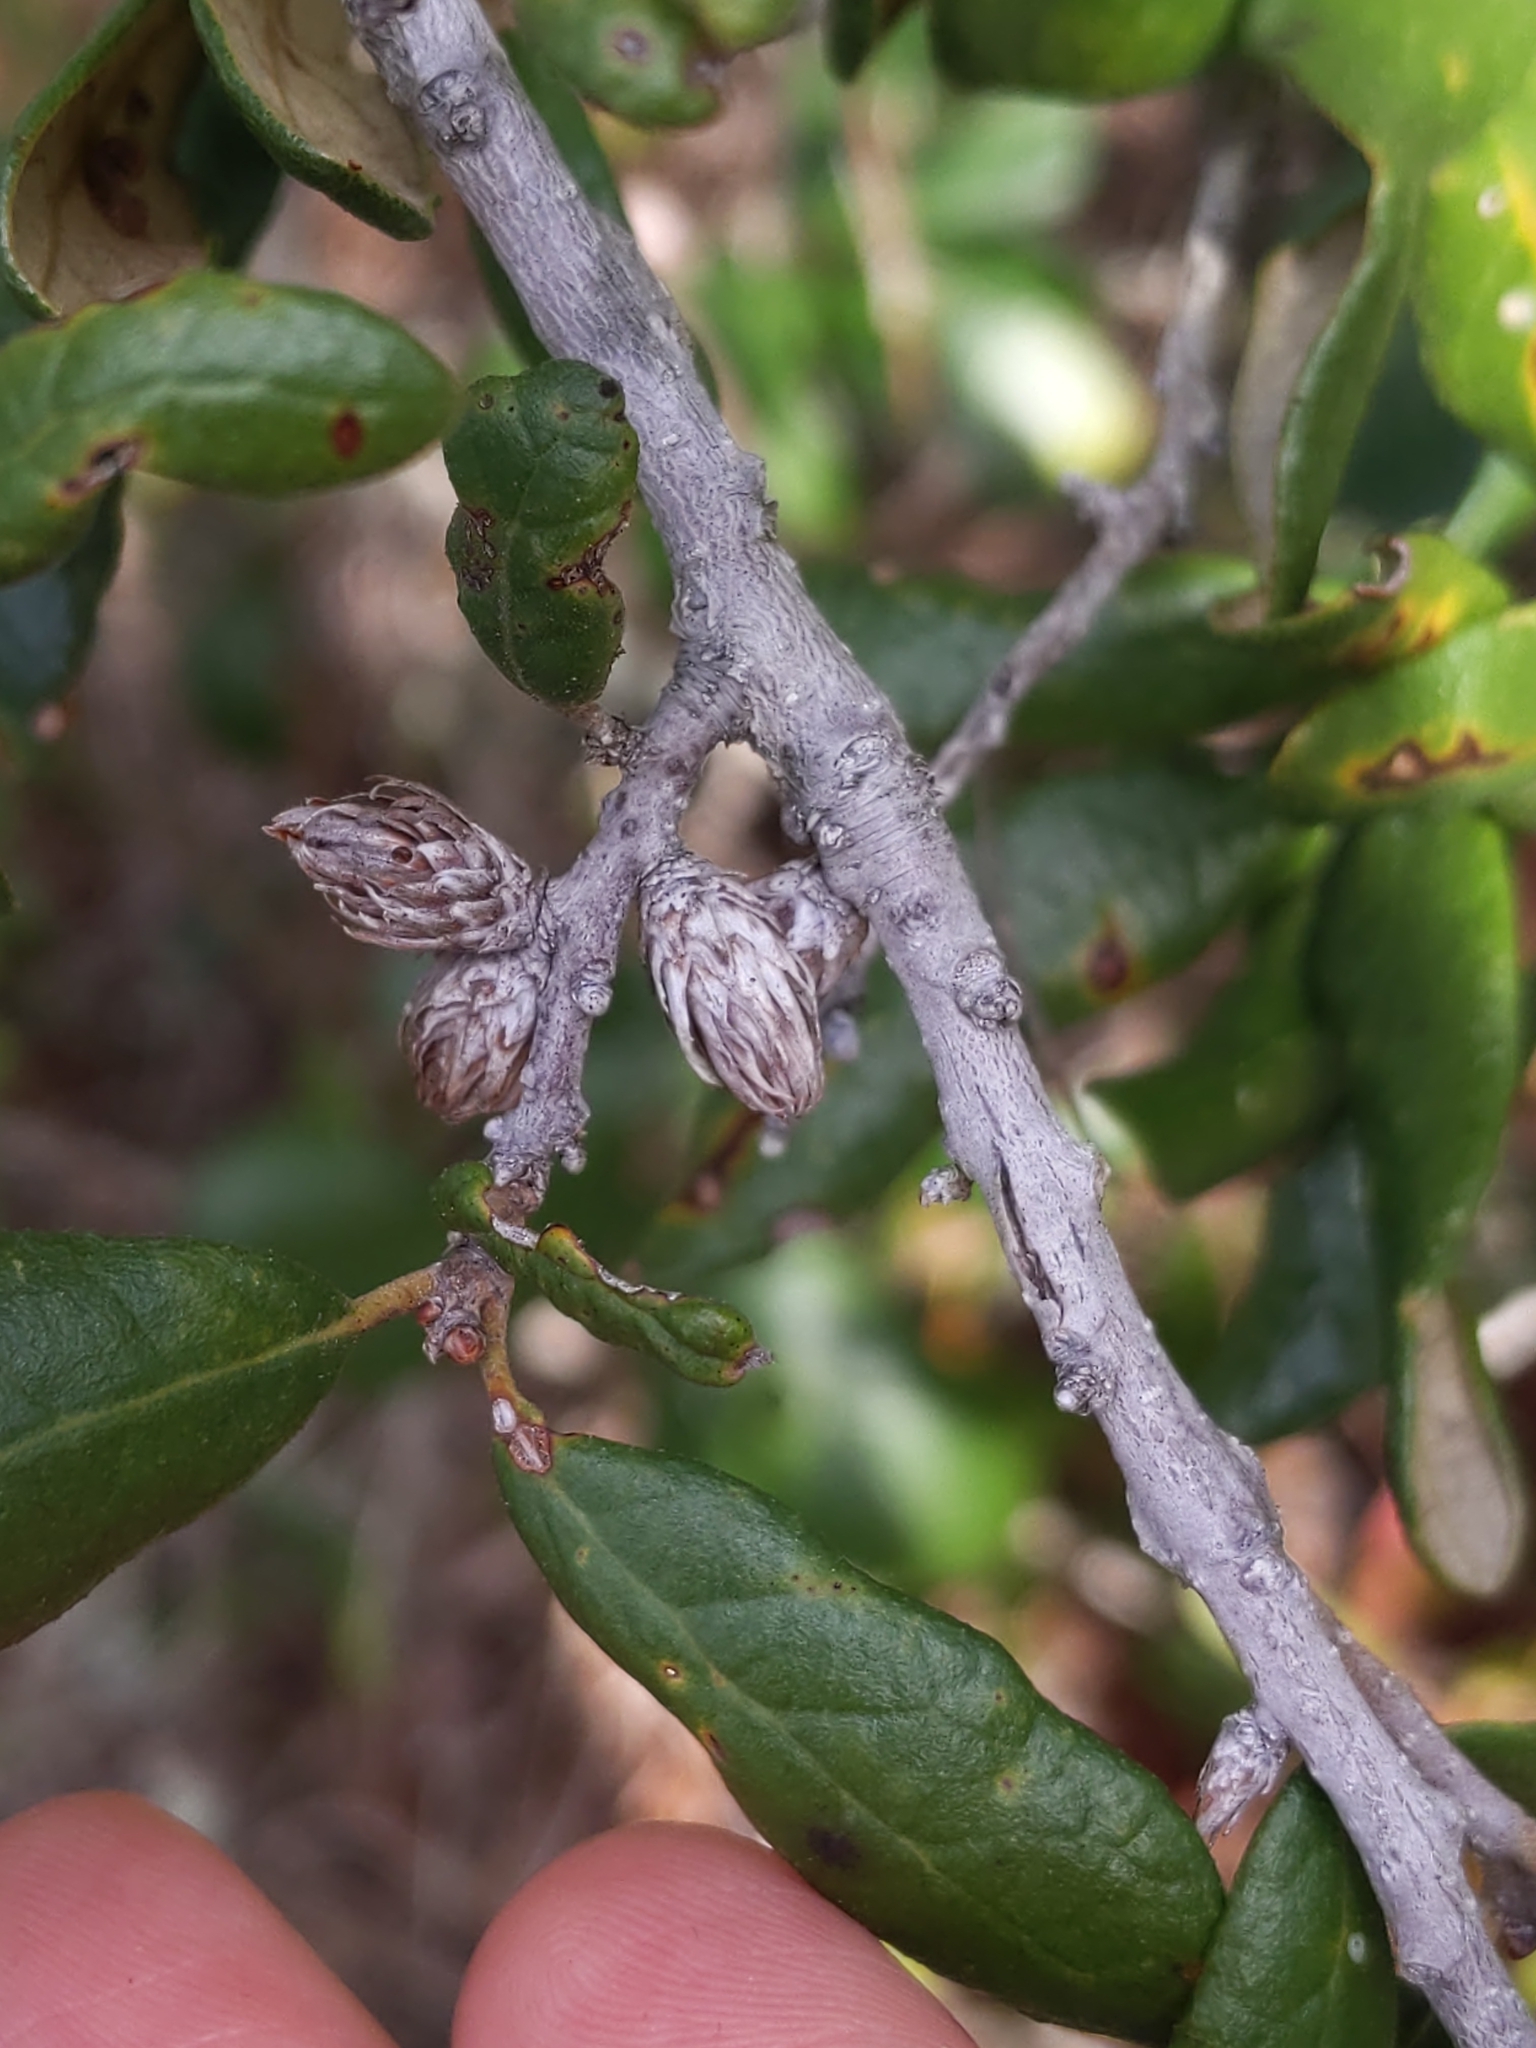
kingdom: Animalia
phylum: Arthropoda
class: Insecta
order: Hymenoptera
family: Cynipidae
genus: Andricus
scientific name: Andricus quercusfoliatus
